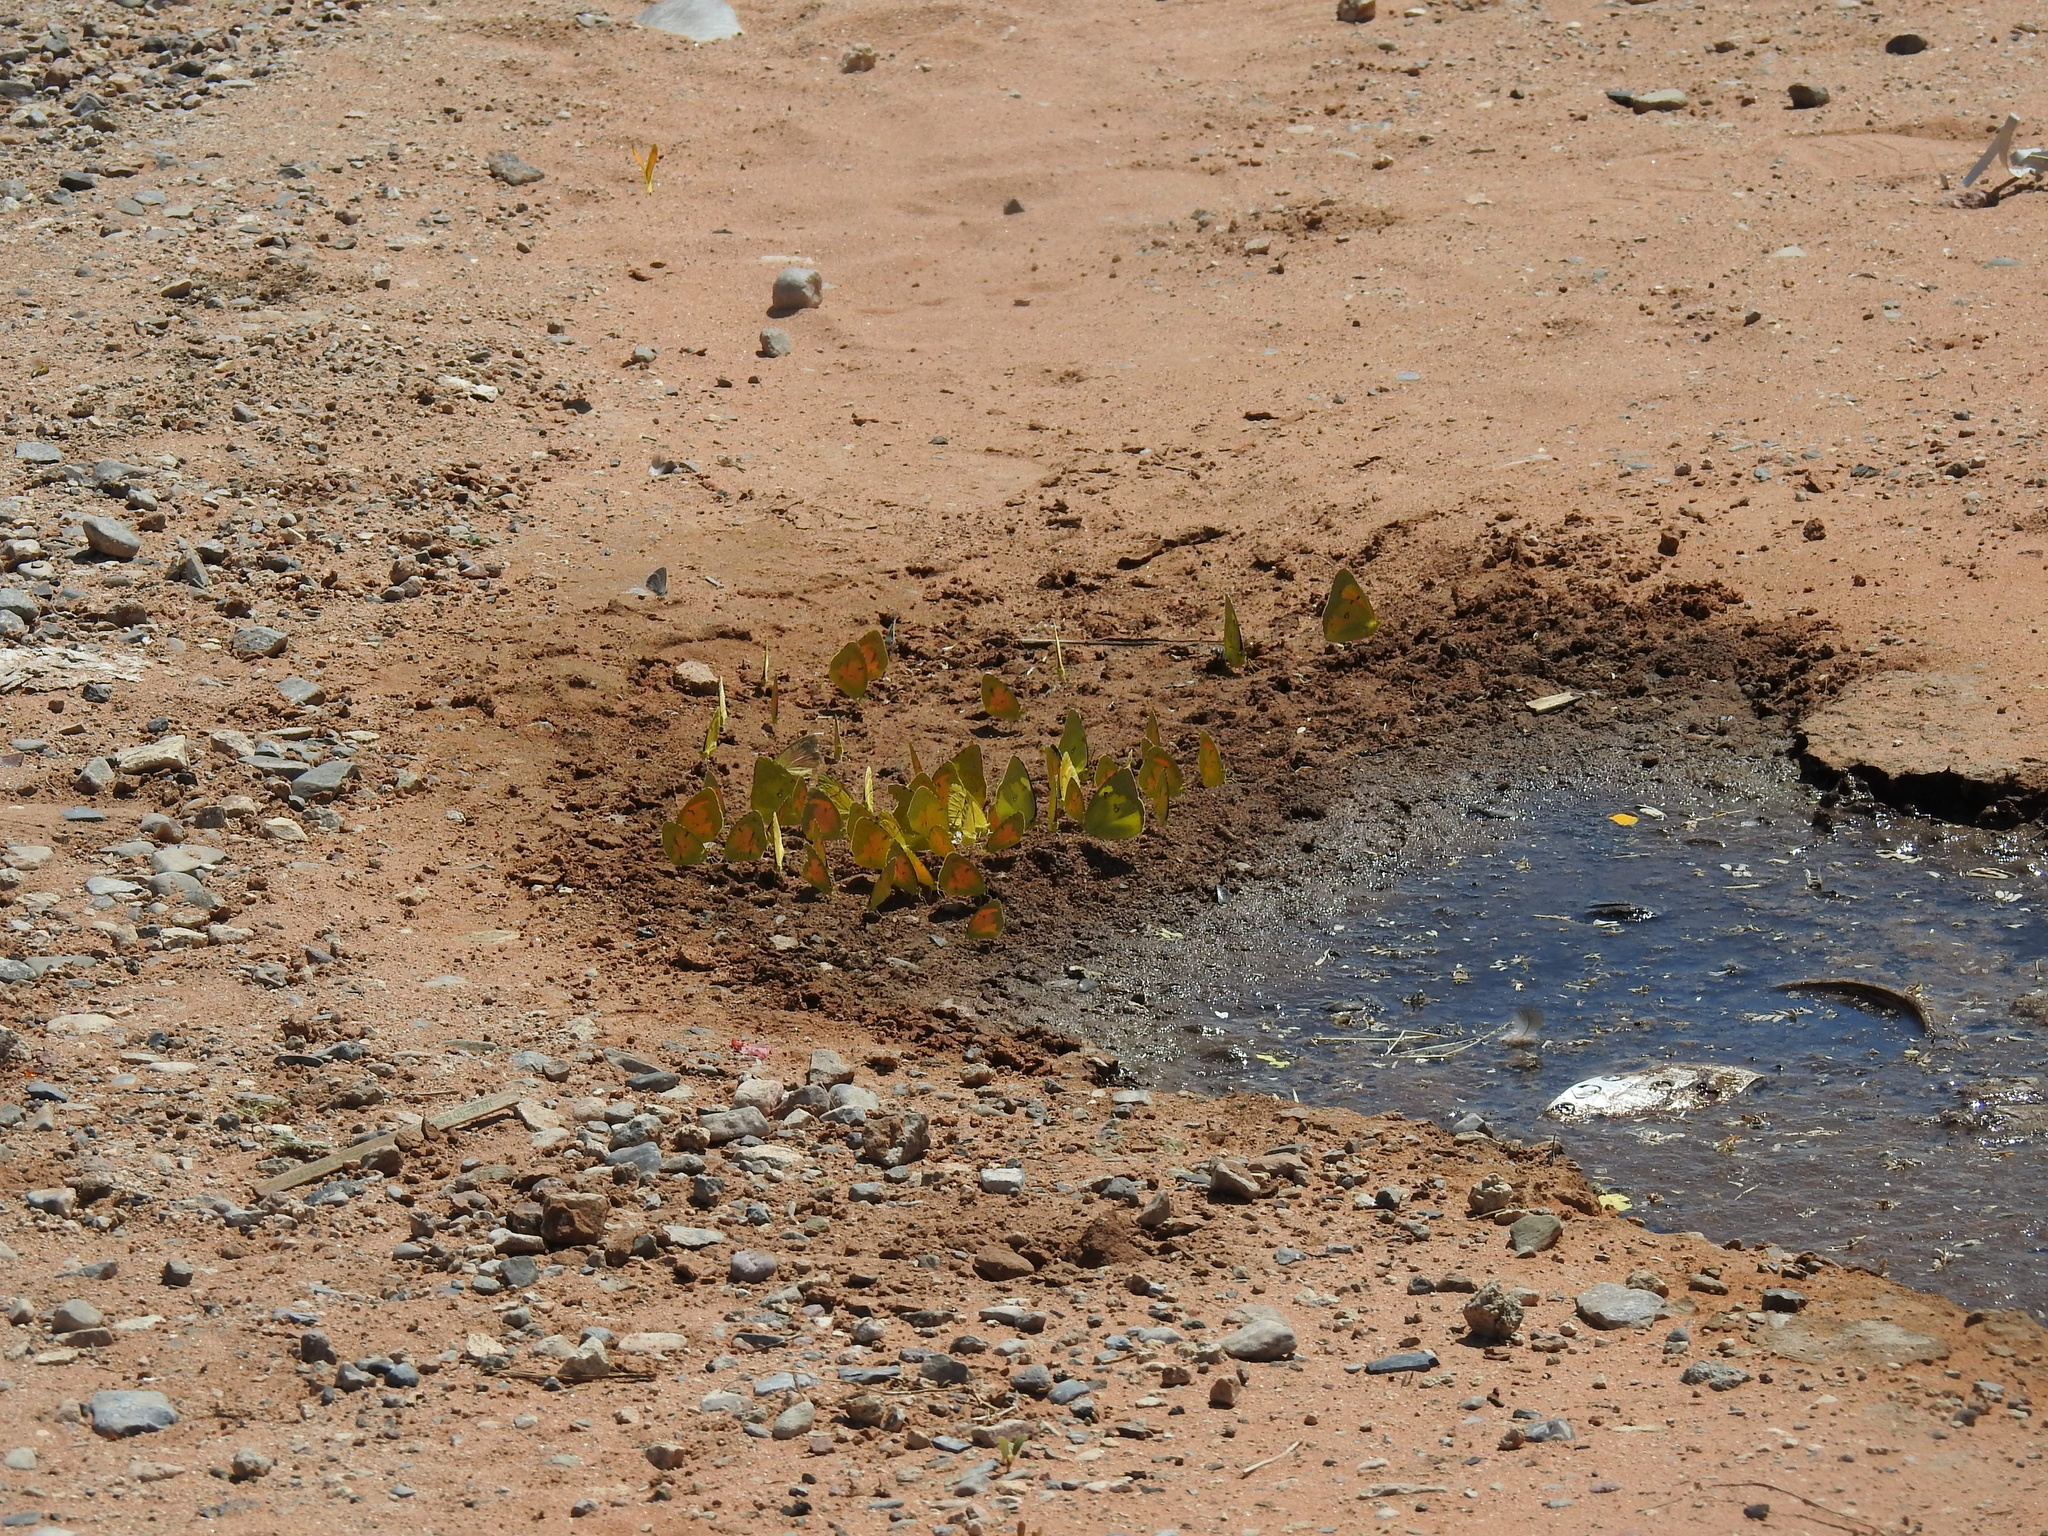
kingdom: Animalia
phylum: Arthropoda
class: Insecta
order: Lepidoptera
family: Pieridae
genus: Abaeis
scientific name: Abaeis nicippe
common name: Sleepy orange
